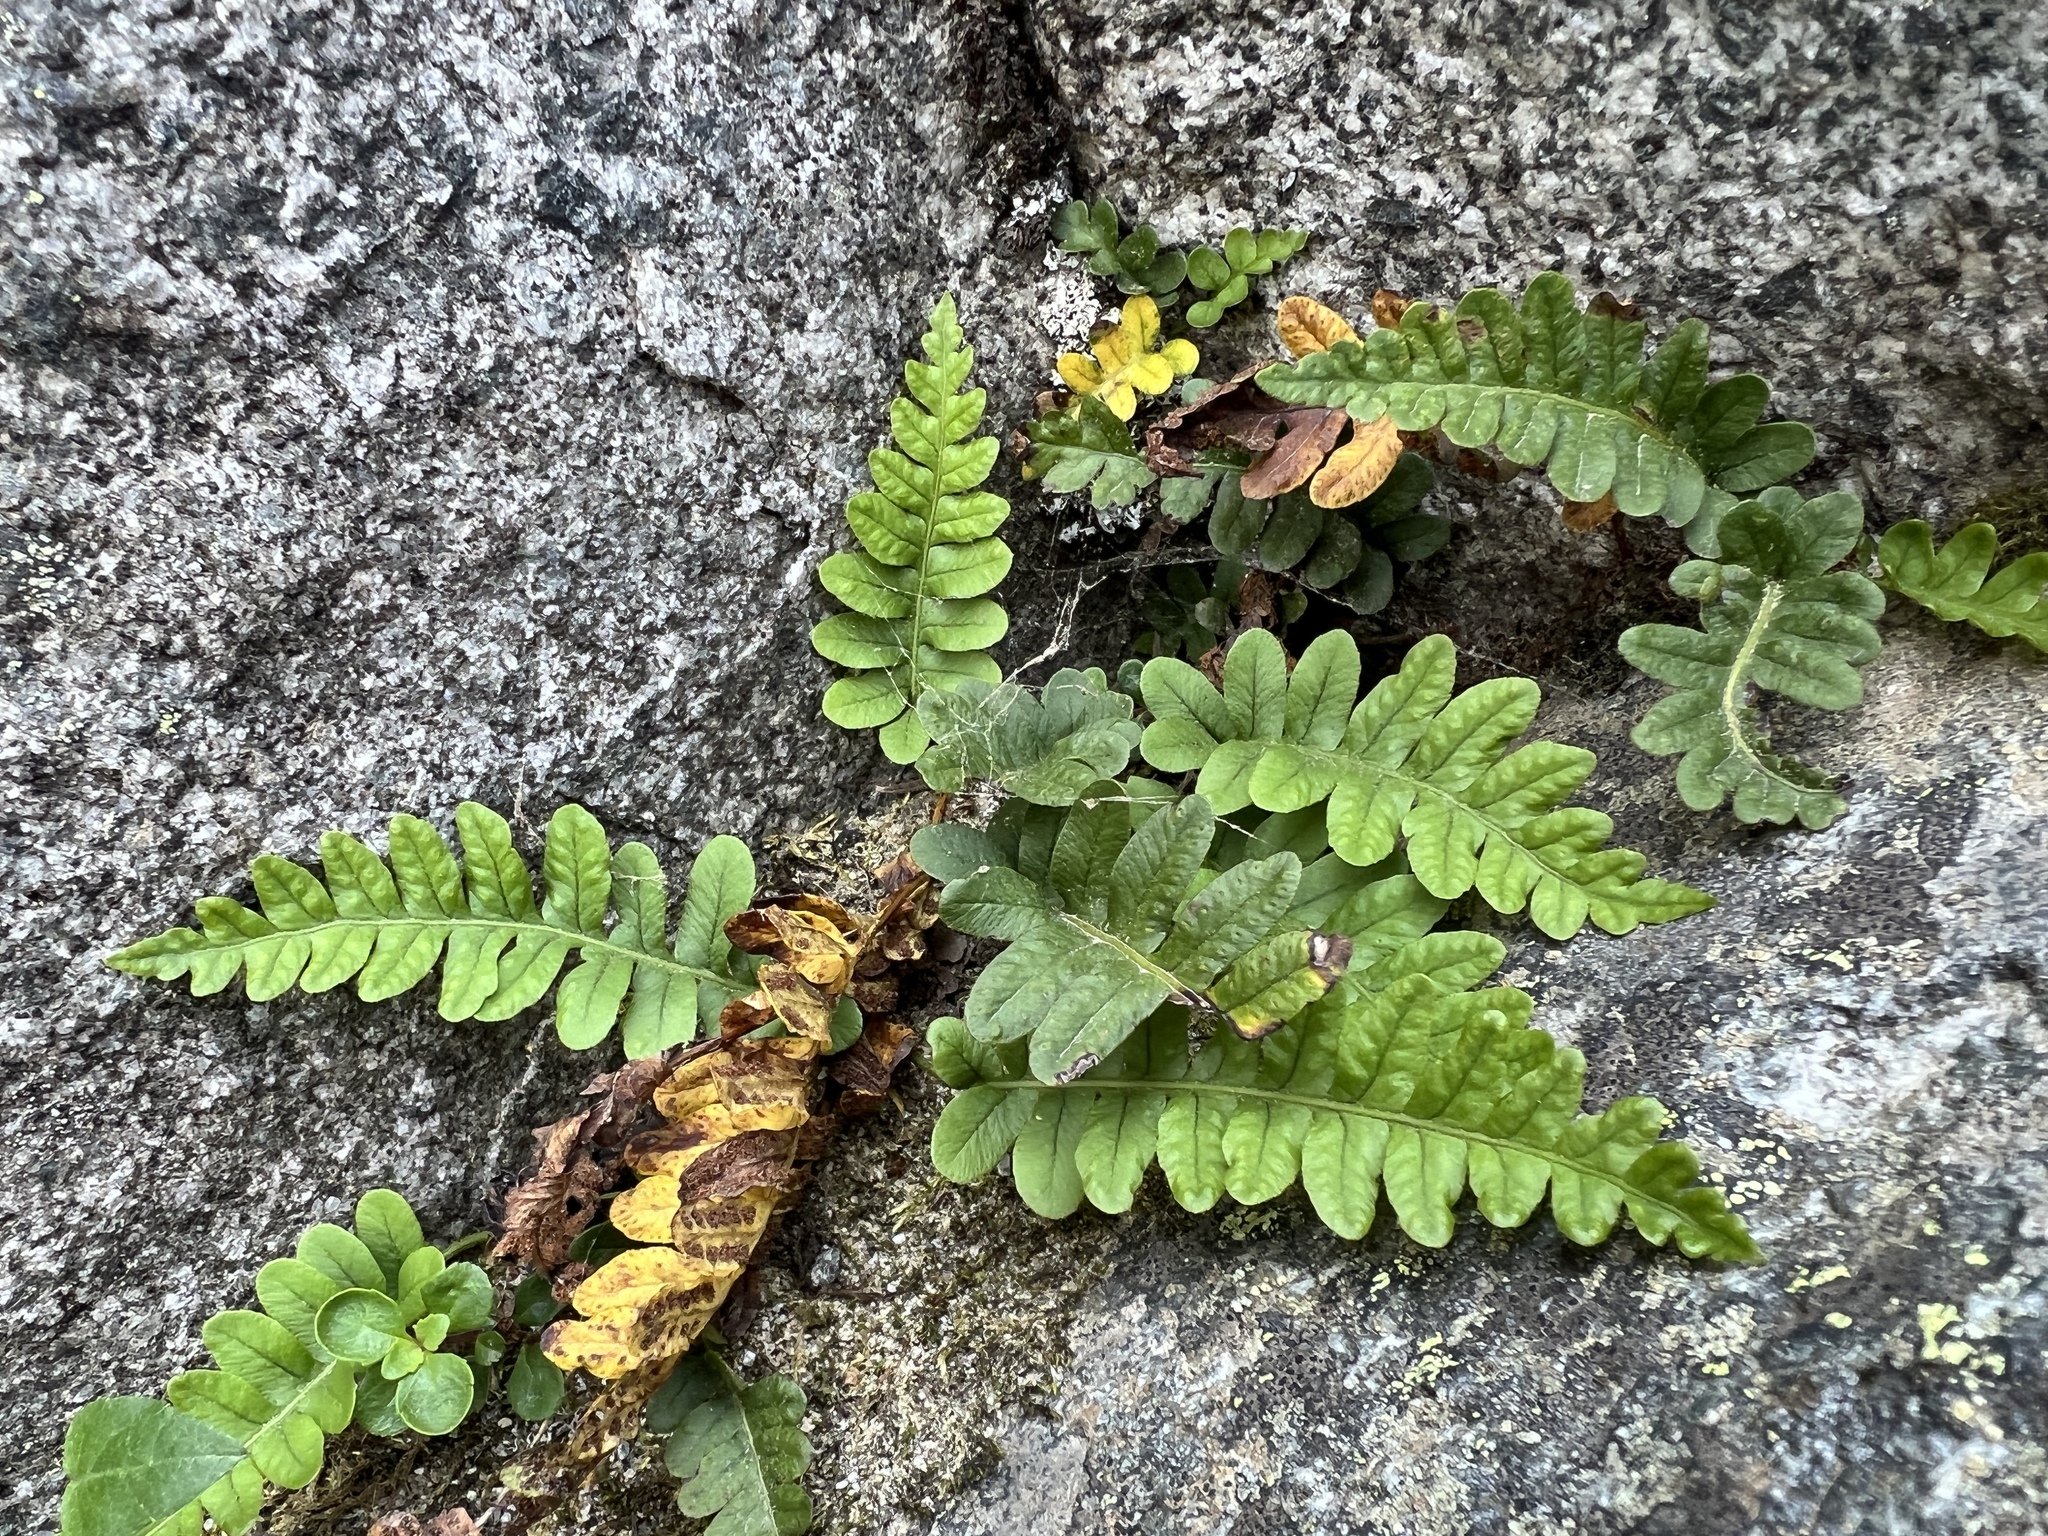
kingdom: Plantae
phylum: Tracheophyta
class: Polypodiopsida
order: Polypodiales
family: Polypodiaceae
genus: Polypodium
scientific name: Polypodium amorphum
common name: Pacific polypody
